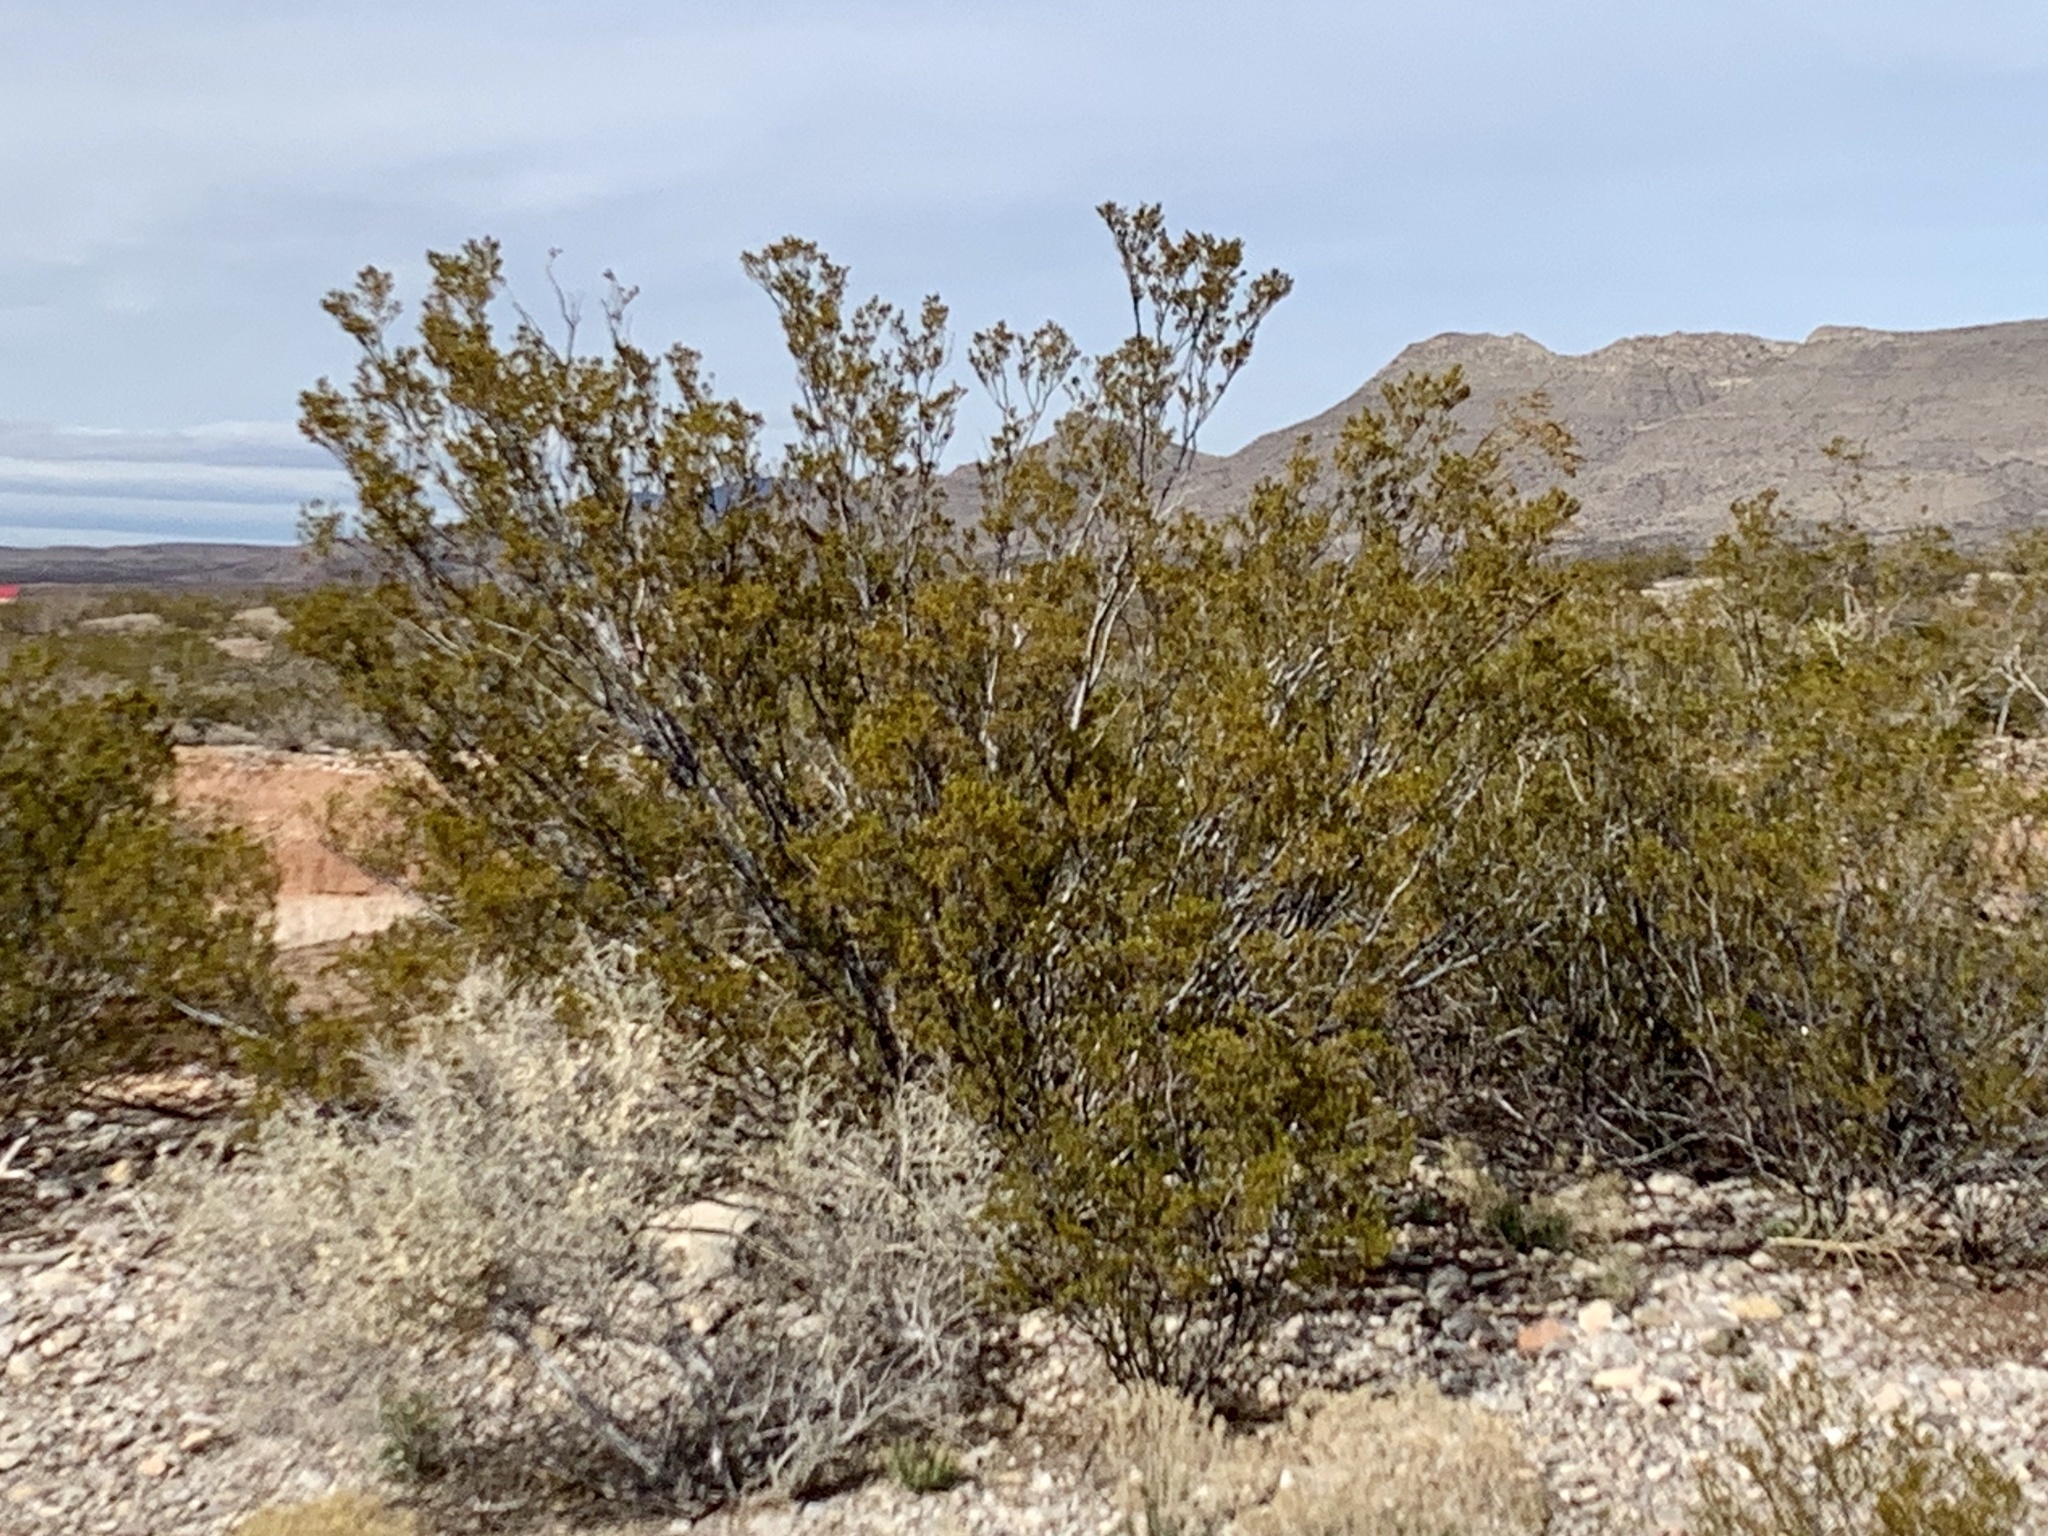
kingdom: Plantae
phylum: Tracheophyta
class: Magnoliopsida
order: Zygophyllales
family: Zygophyllaceae
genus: Larrea
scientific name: Larrea tridentata
